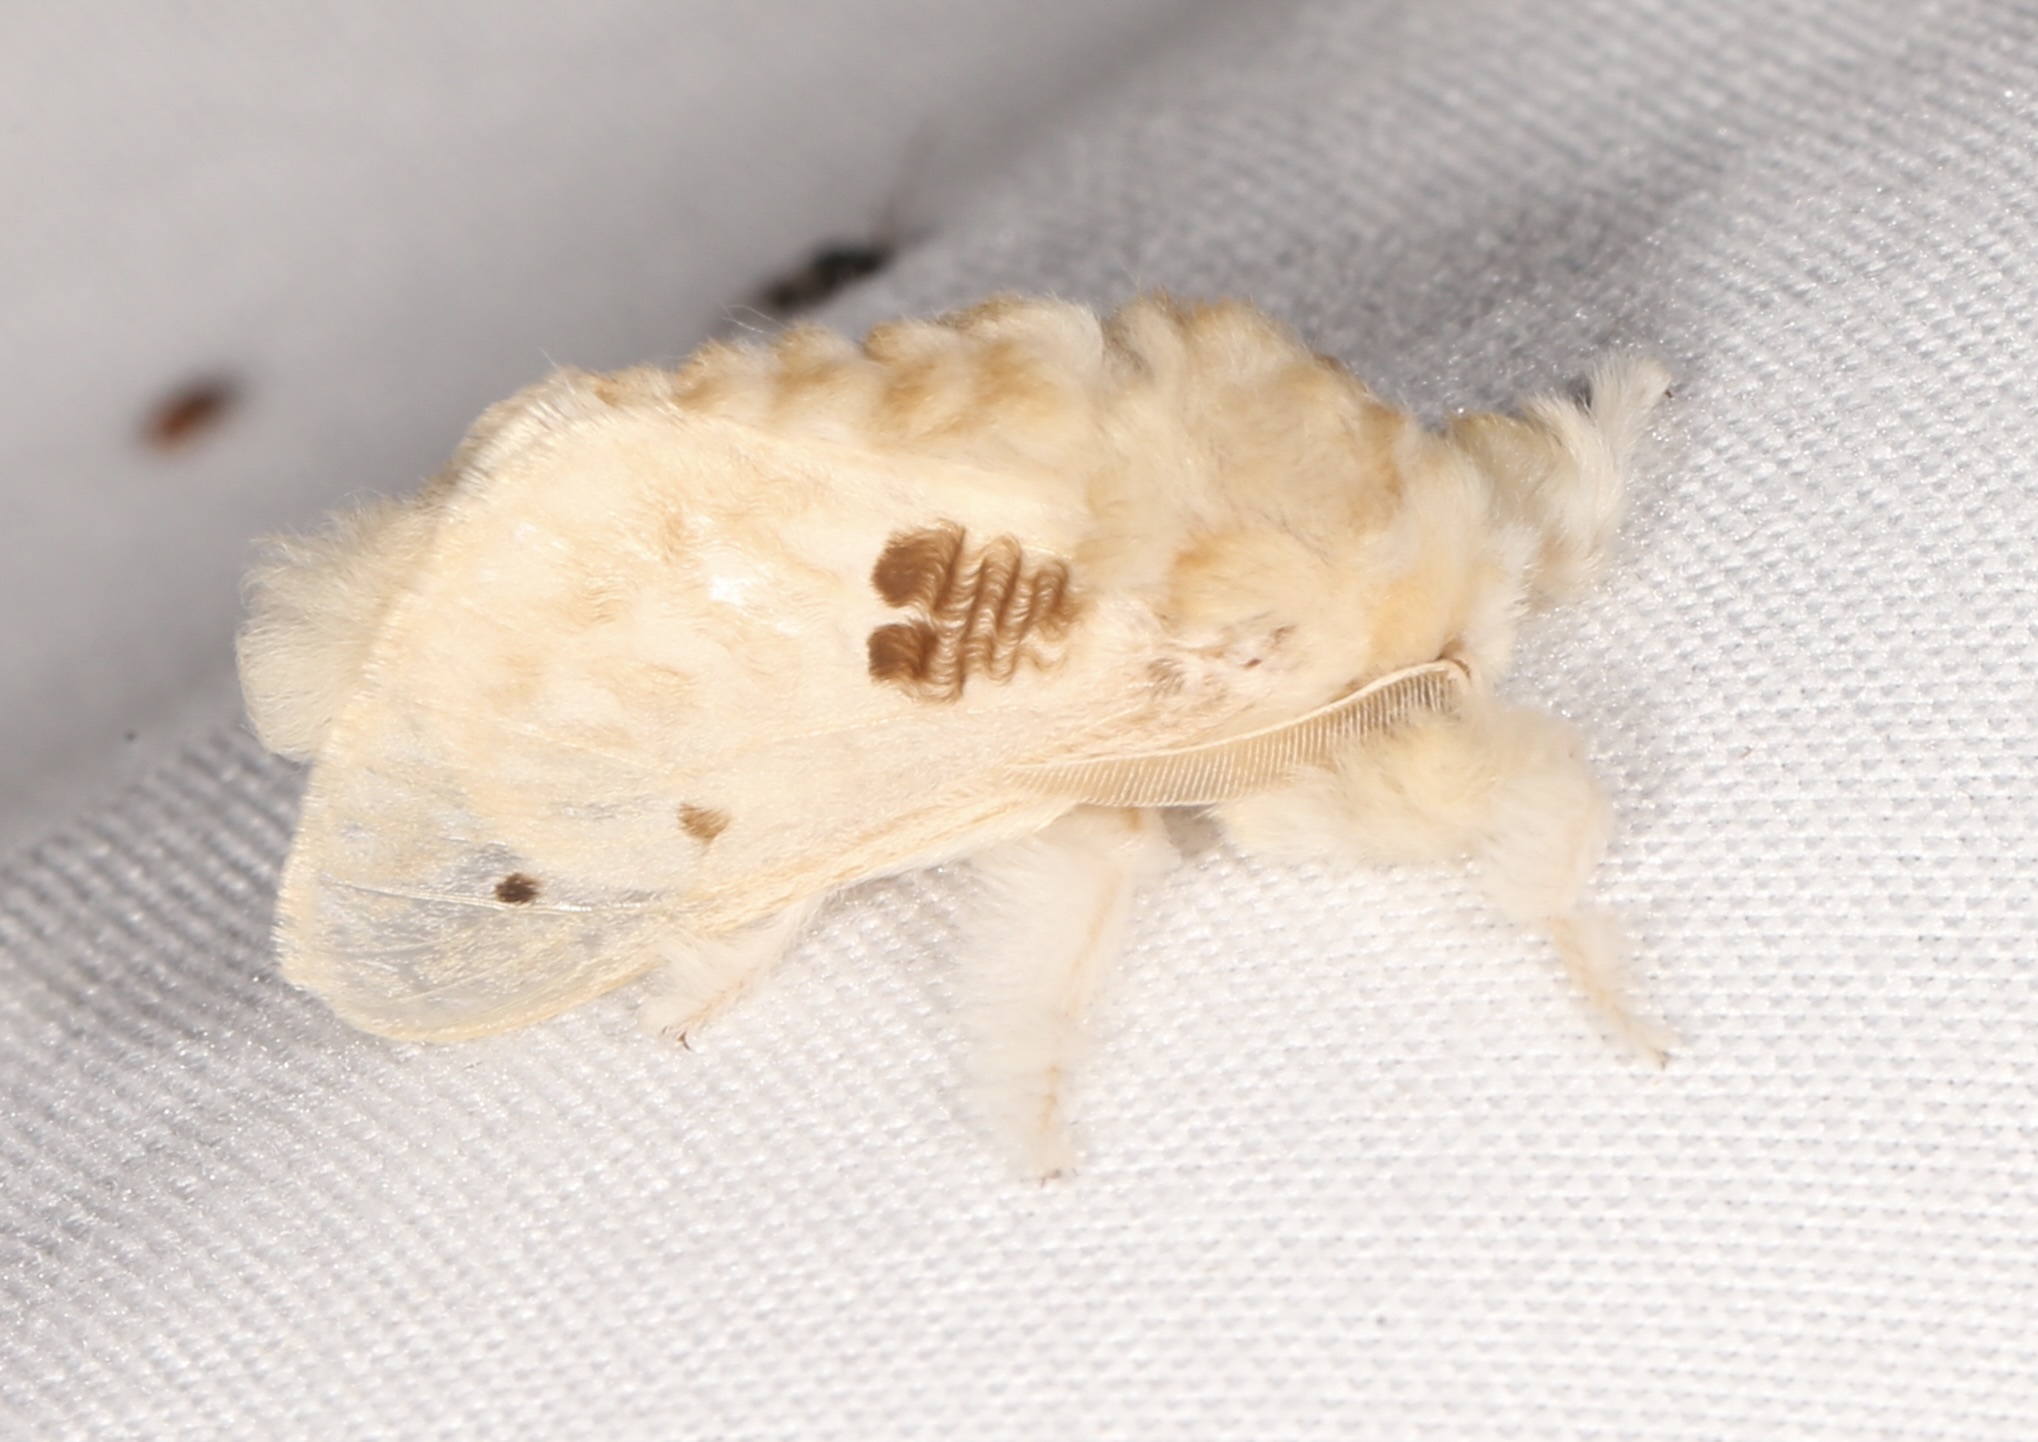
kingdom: Animalia
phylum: Arthropoda
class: Insecta
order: Lepidoptera
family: Megalopygidae
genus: Megalopyge
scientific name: Megalopyge lapena
